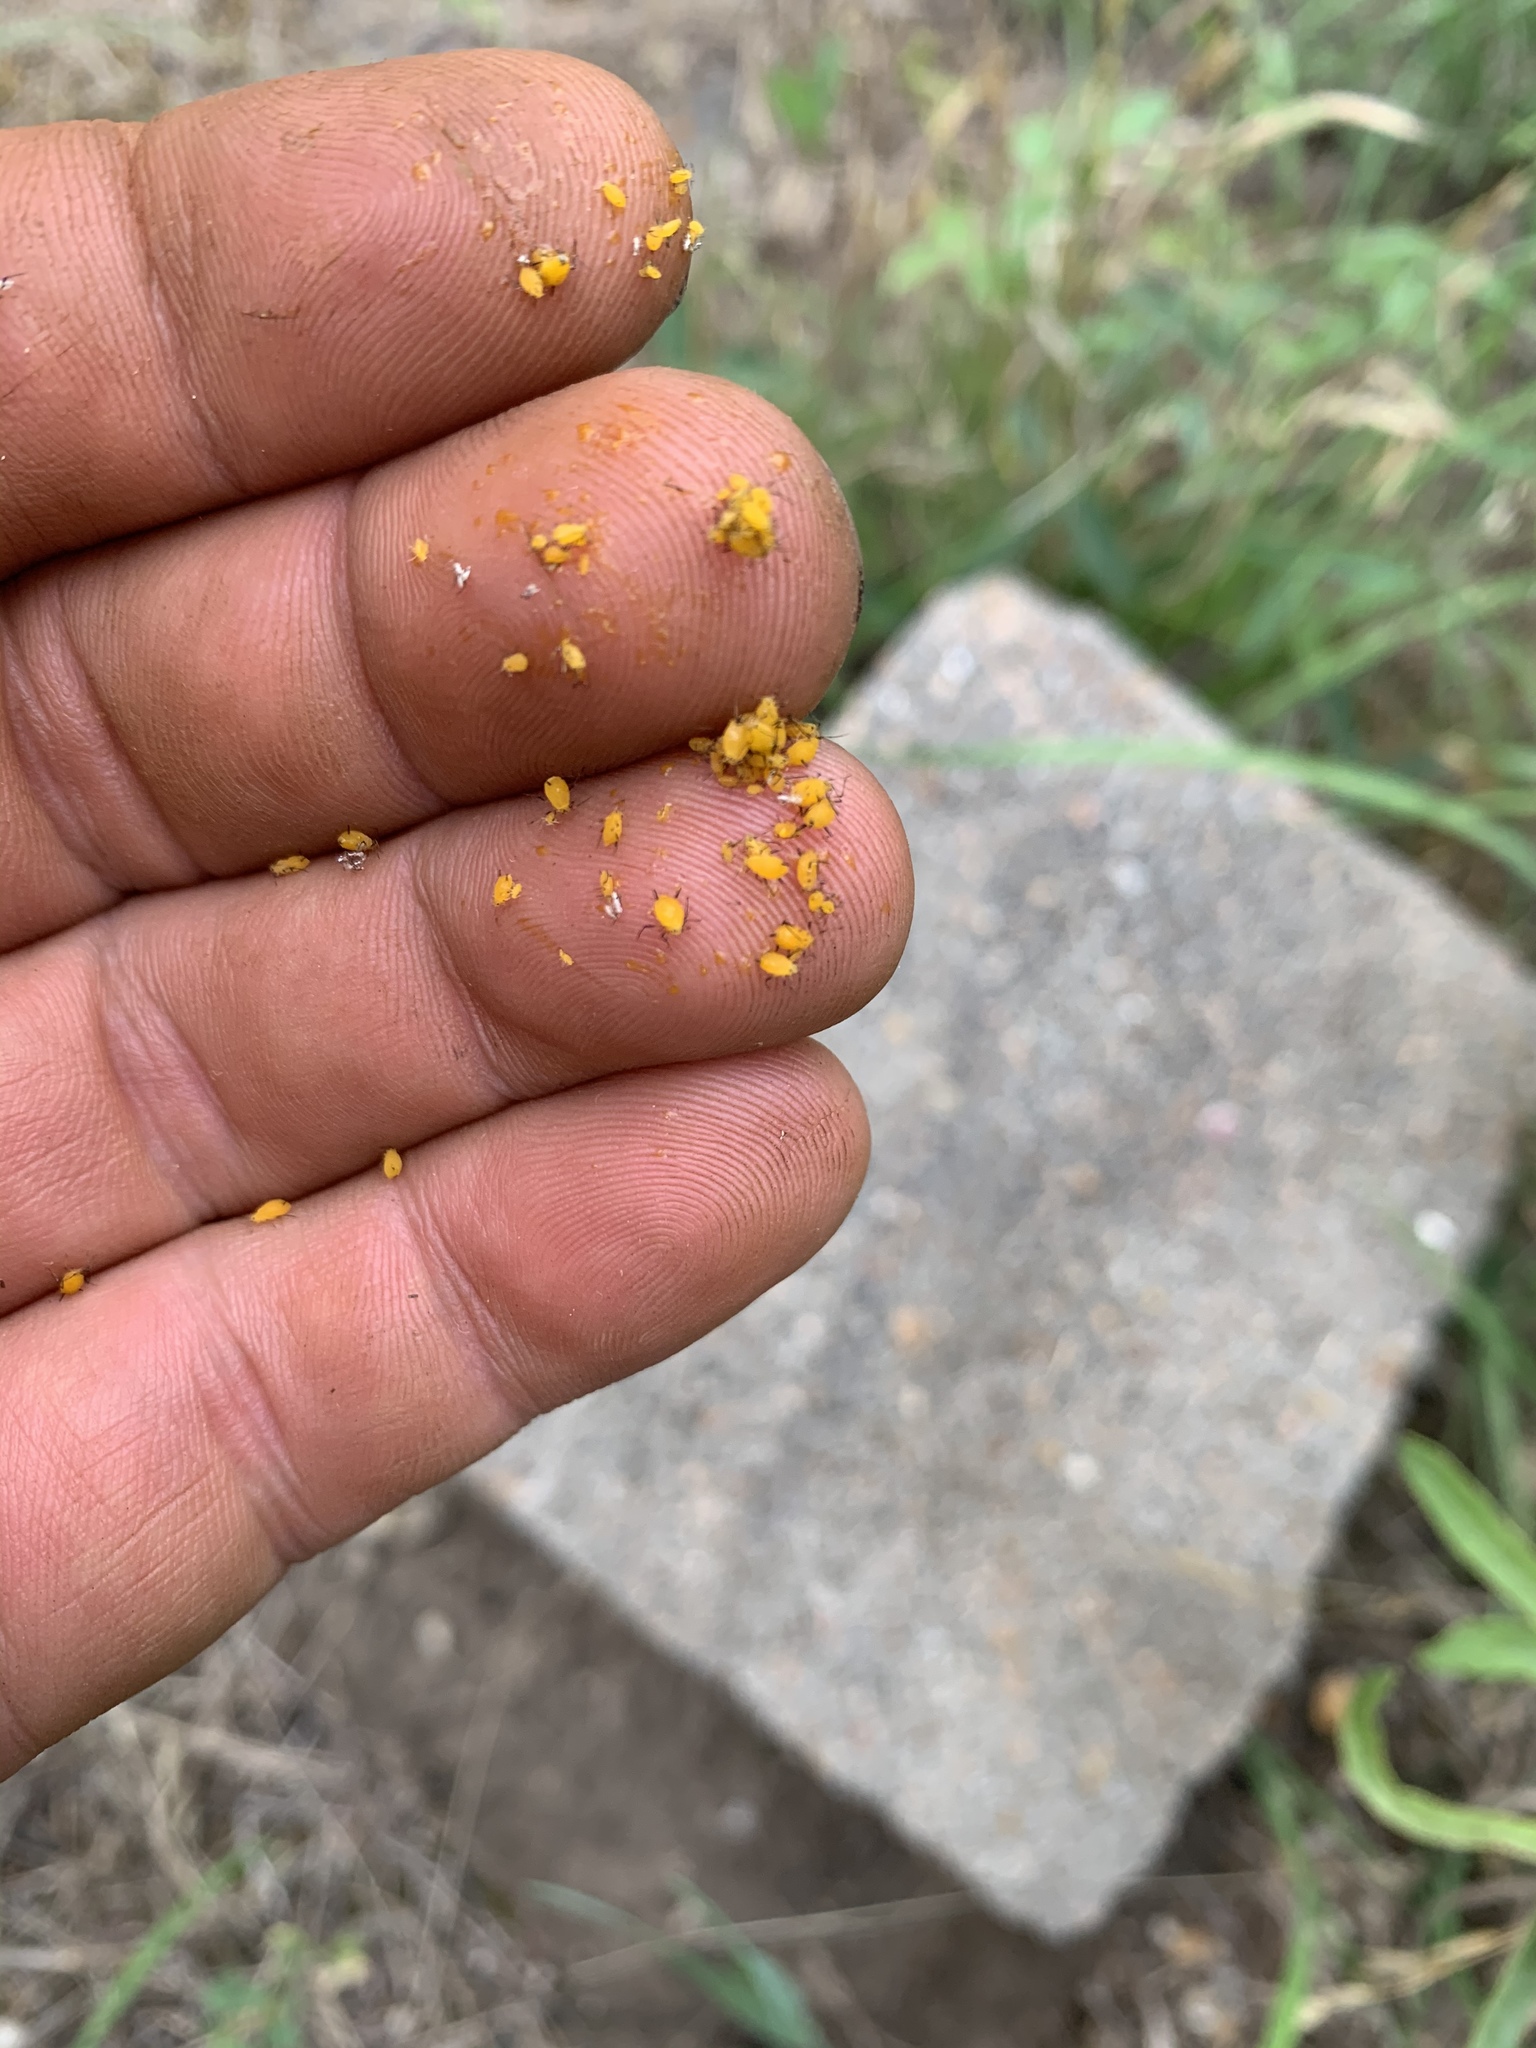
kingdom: Animalia
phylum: Arthropoda
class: Insecta
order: Hemiptera
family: Aphididae
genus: Aphis
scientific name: Aphis nerii
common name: Oleander aphid
